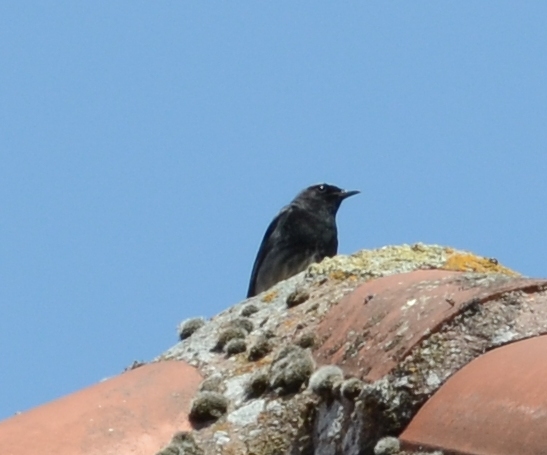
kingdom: Animalia
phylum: Chordata
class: Aves
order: Passeriformes
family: Muscicapidae
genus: Phoenicurus
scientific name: Phoenicurus ochruros
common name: Black redstart
